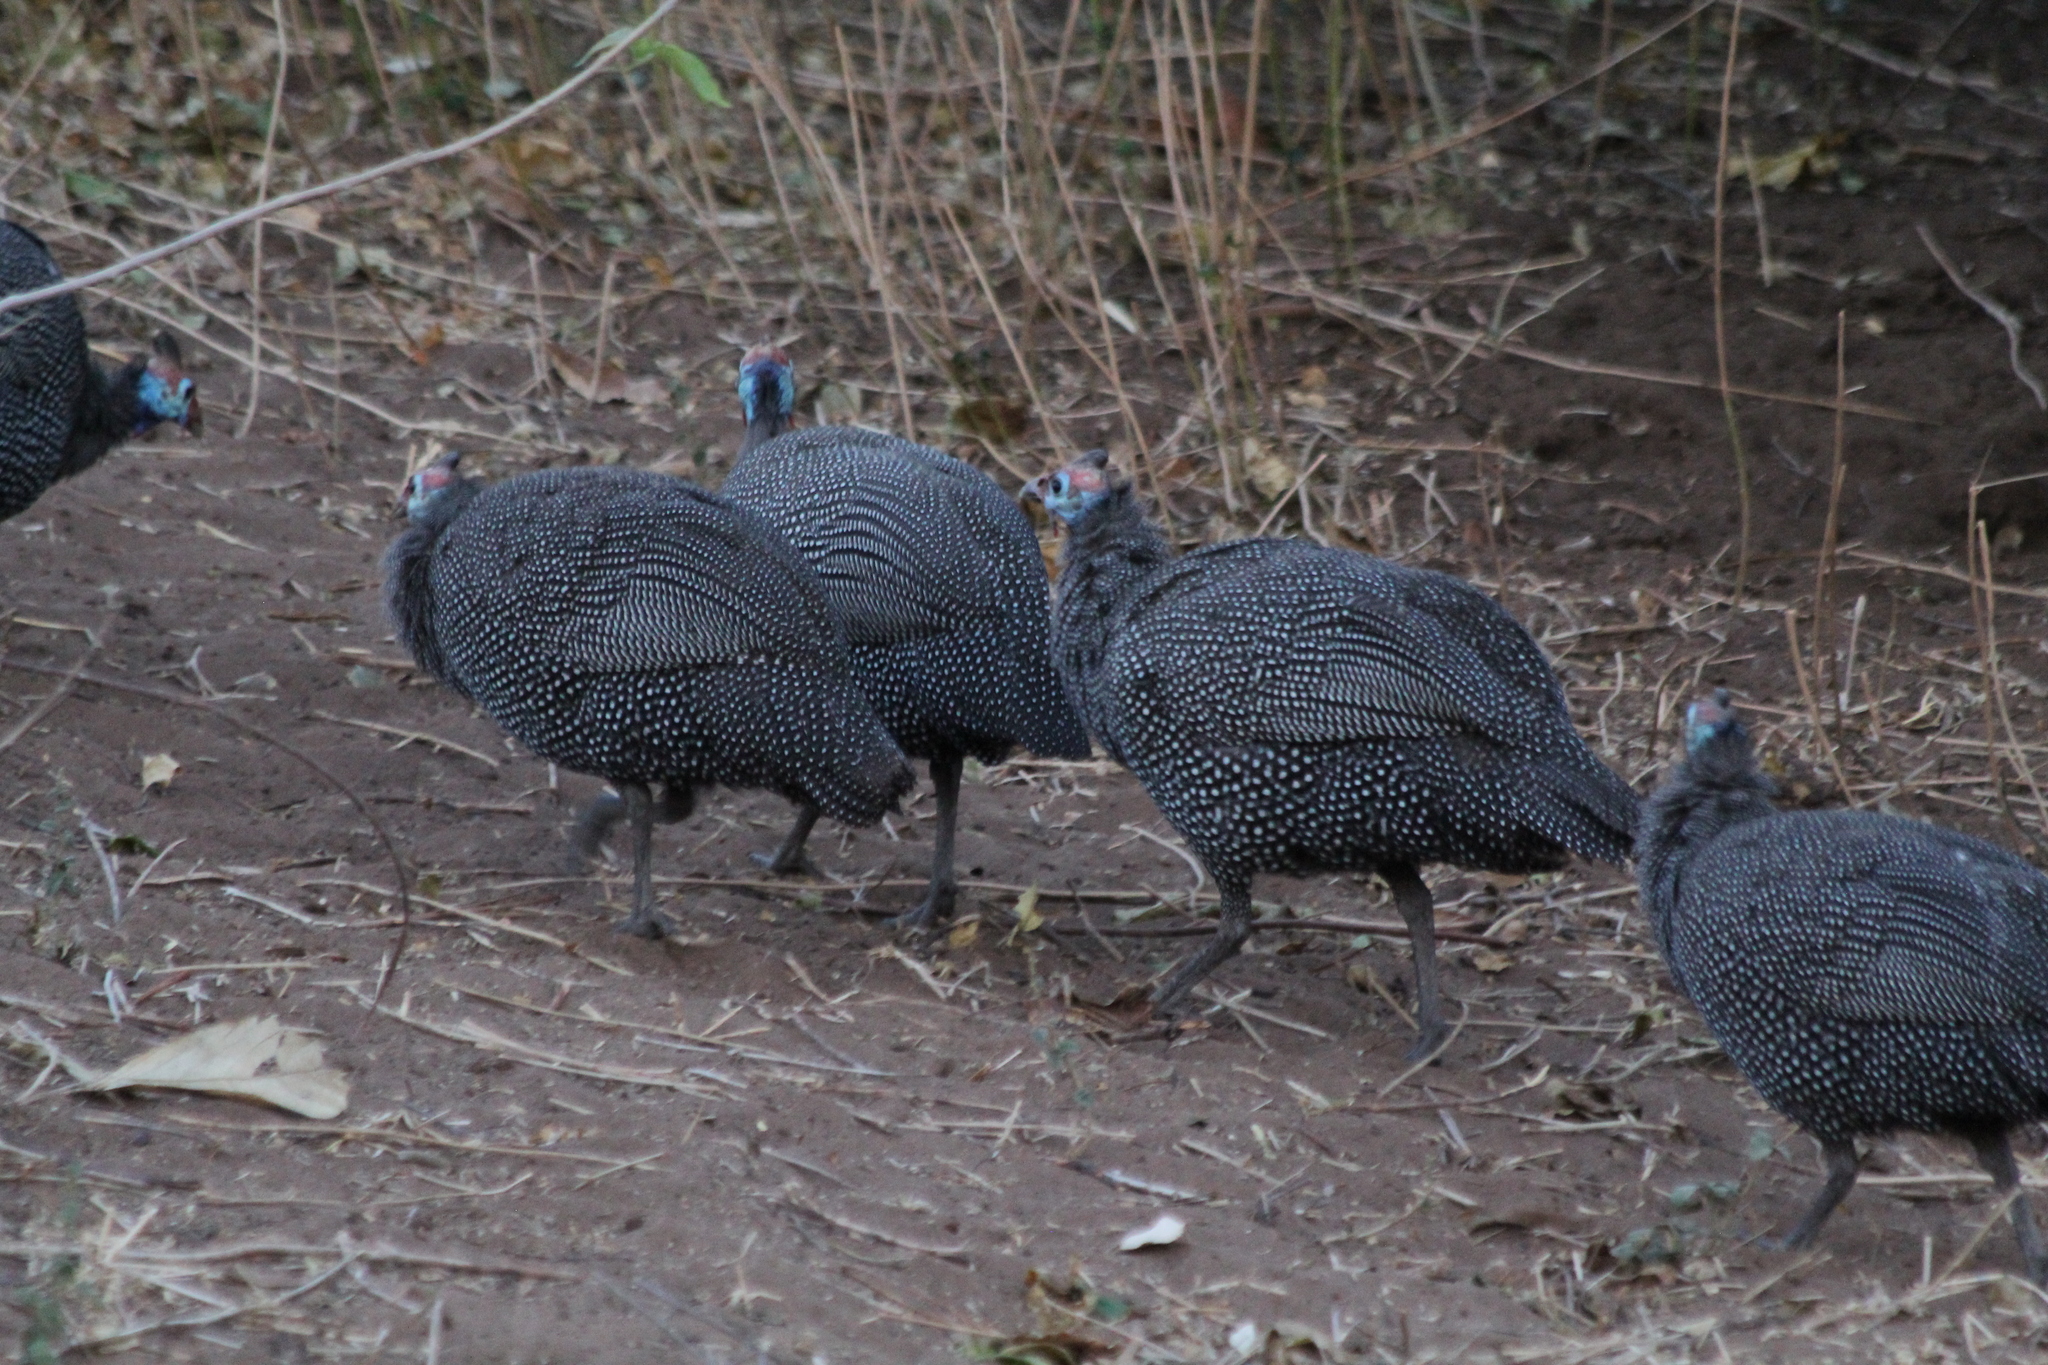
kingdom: Animalia
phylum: Chordata
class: Aves
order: Galliformes
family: Numididae
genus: Numida
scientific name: Numida meleagris
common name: Helmeted guineafowl
